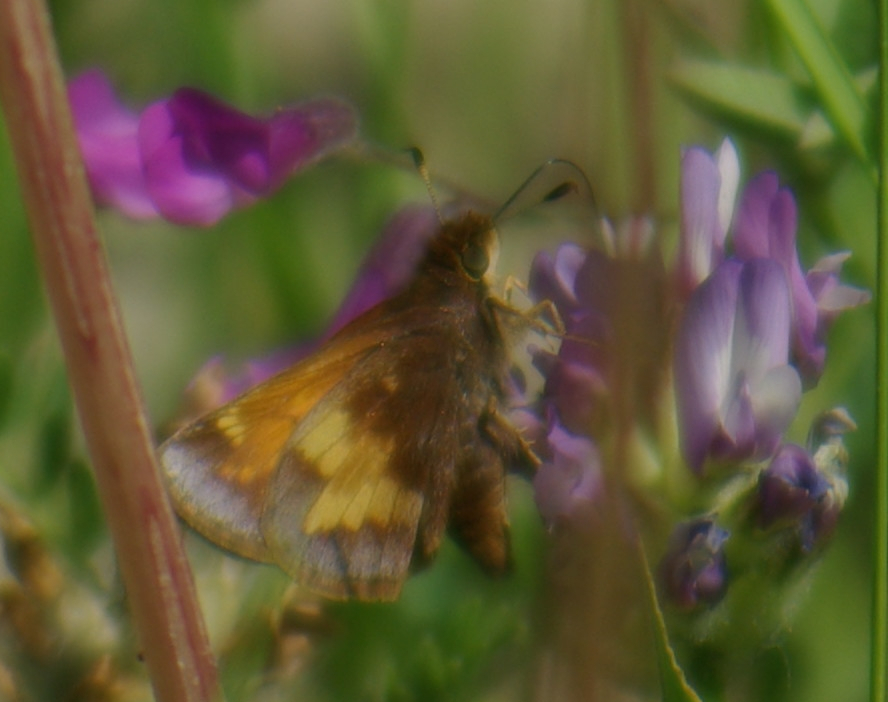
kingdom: Animalia
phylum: Arthropoda
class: Insecta
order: Lepidoptera
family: Hesperiidae
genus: Lon
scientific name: Lon hobomok
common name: Hobomok skipper
